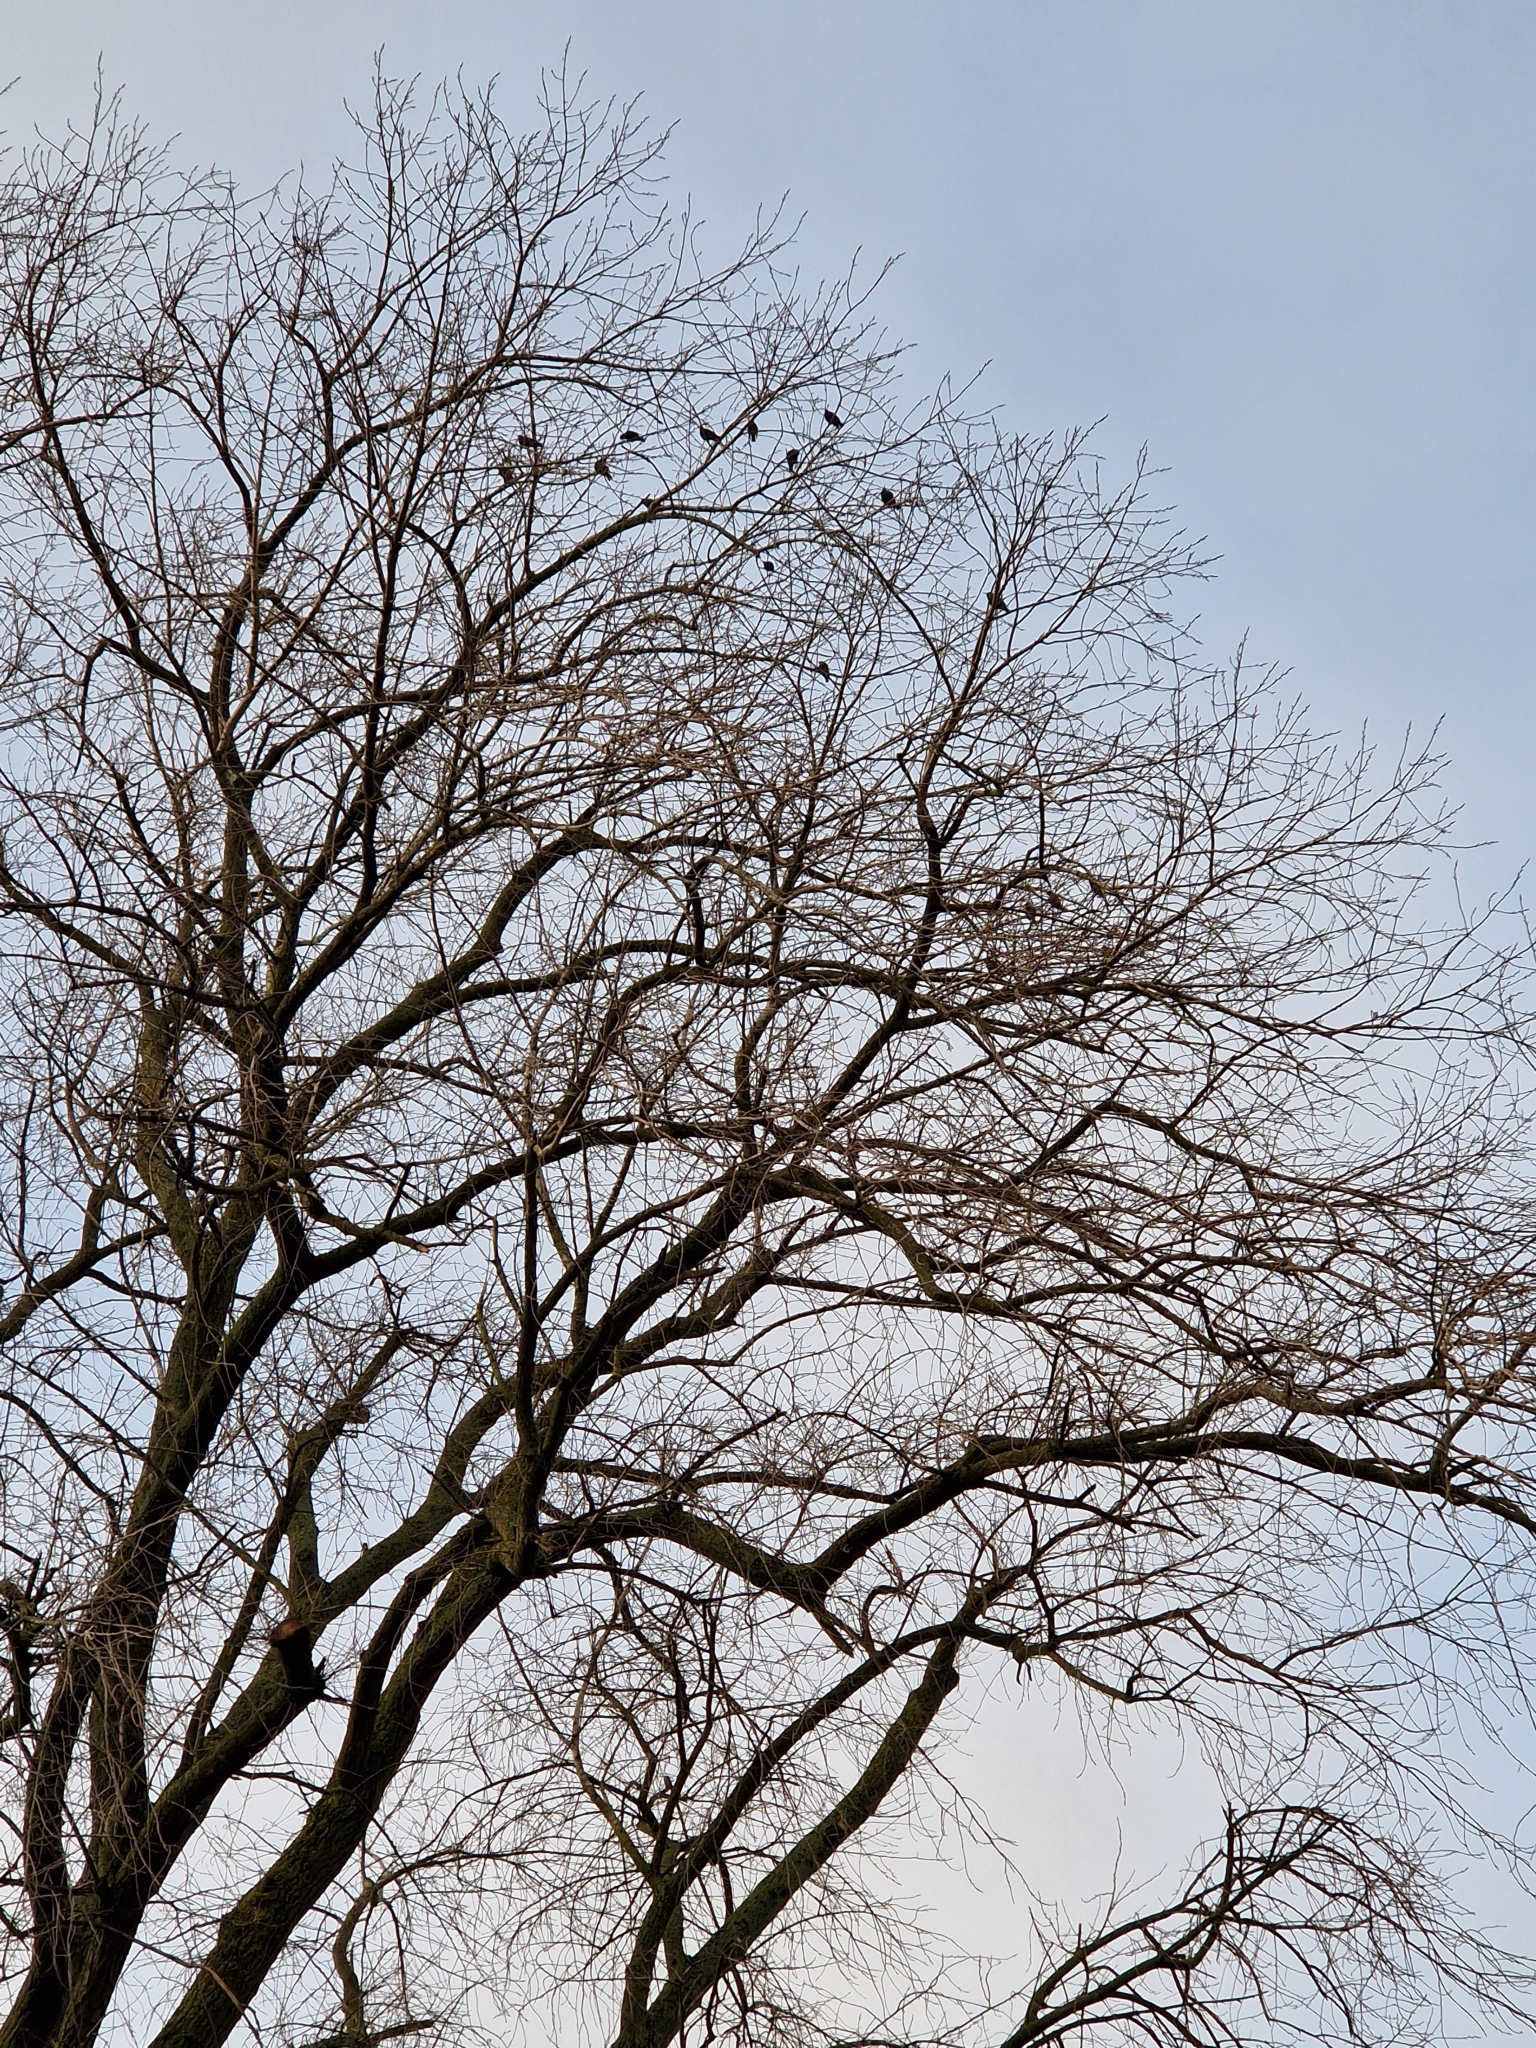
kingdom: Animalia
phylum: Chordata
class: Aves
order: Passeriformes
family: Sturnidae
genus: Sturnus
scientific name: Sturnus vulgaris
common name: Common starling
